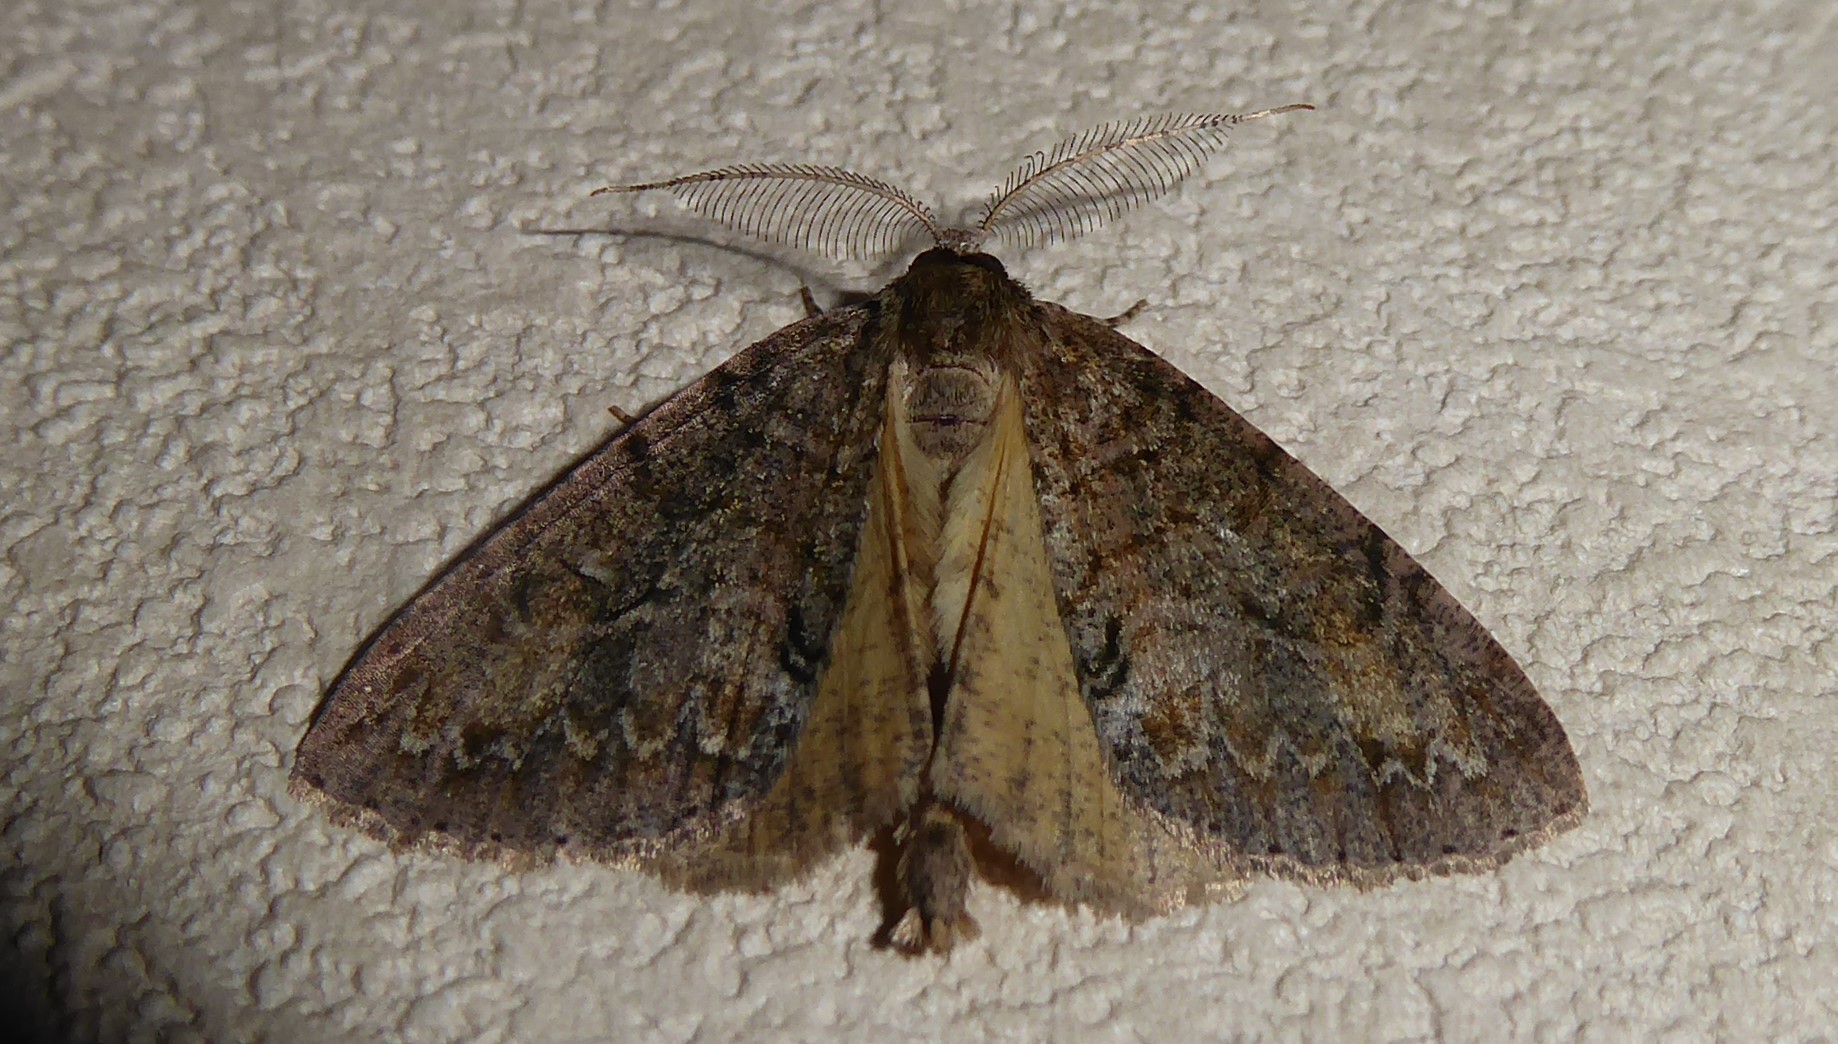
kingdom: Animalia
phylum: Arthropoda
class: Insecta
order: Lepidoptera
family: Geometridae
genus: Pseudocoremia
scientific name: Pseudocoremia suavis
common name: Common forest looper
